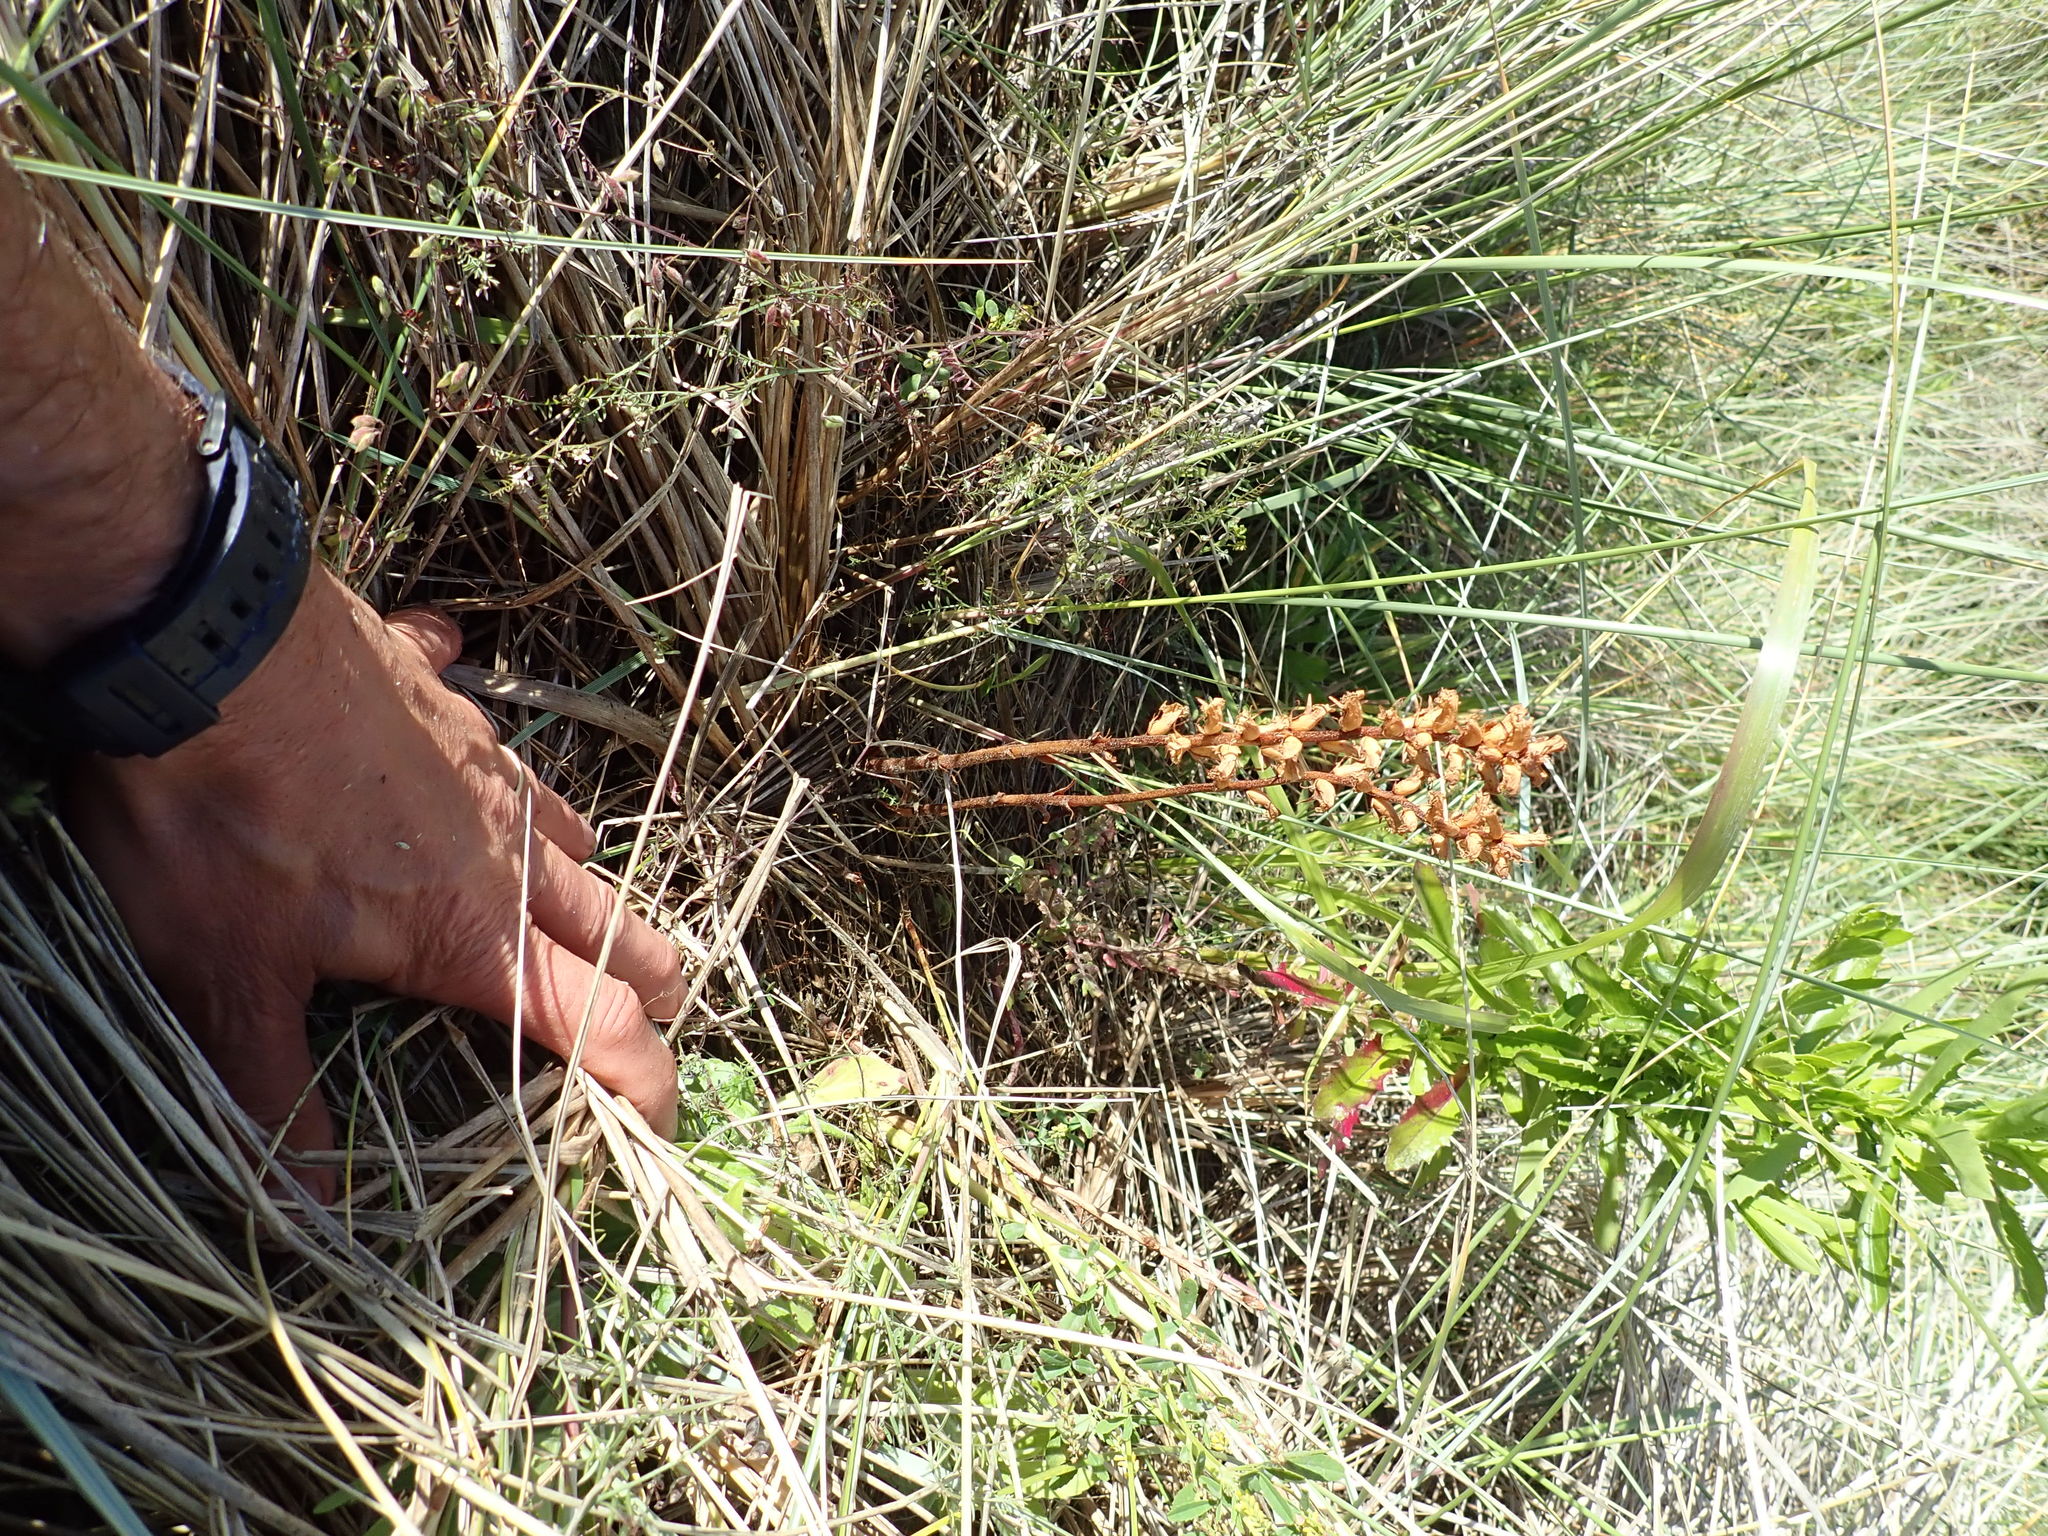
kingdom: Plantae
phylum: Tracheophyta
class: Magnoliopsida
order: Lamiales
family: Orobanchaceae
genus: Orobanche
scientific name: Orobanche minor
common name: Common broomrape
